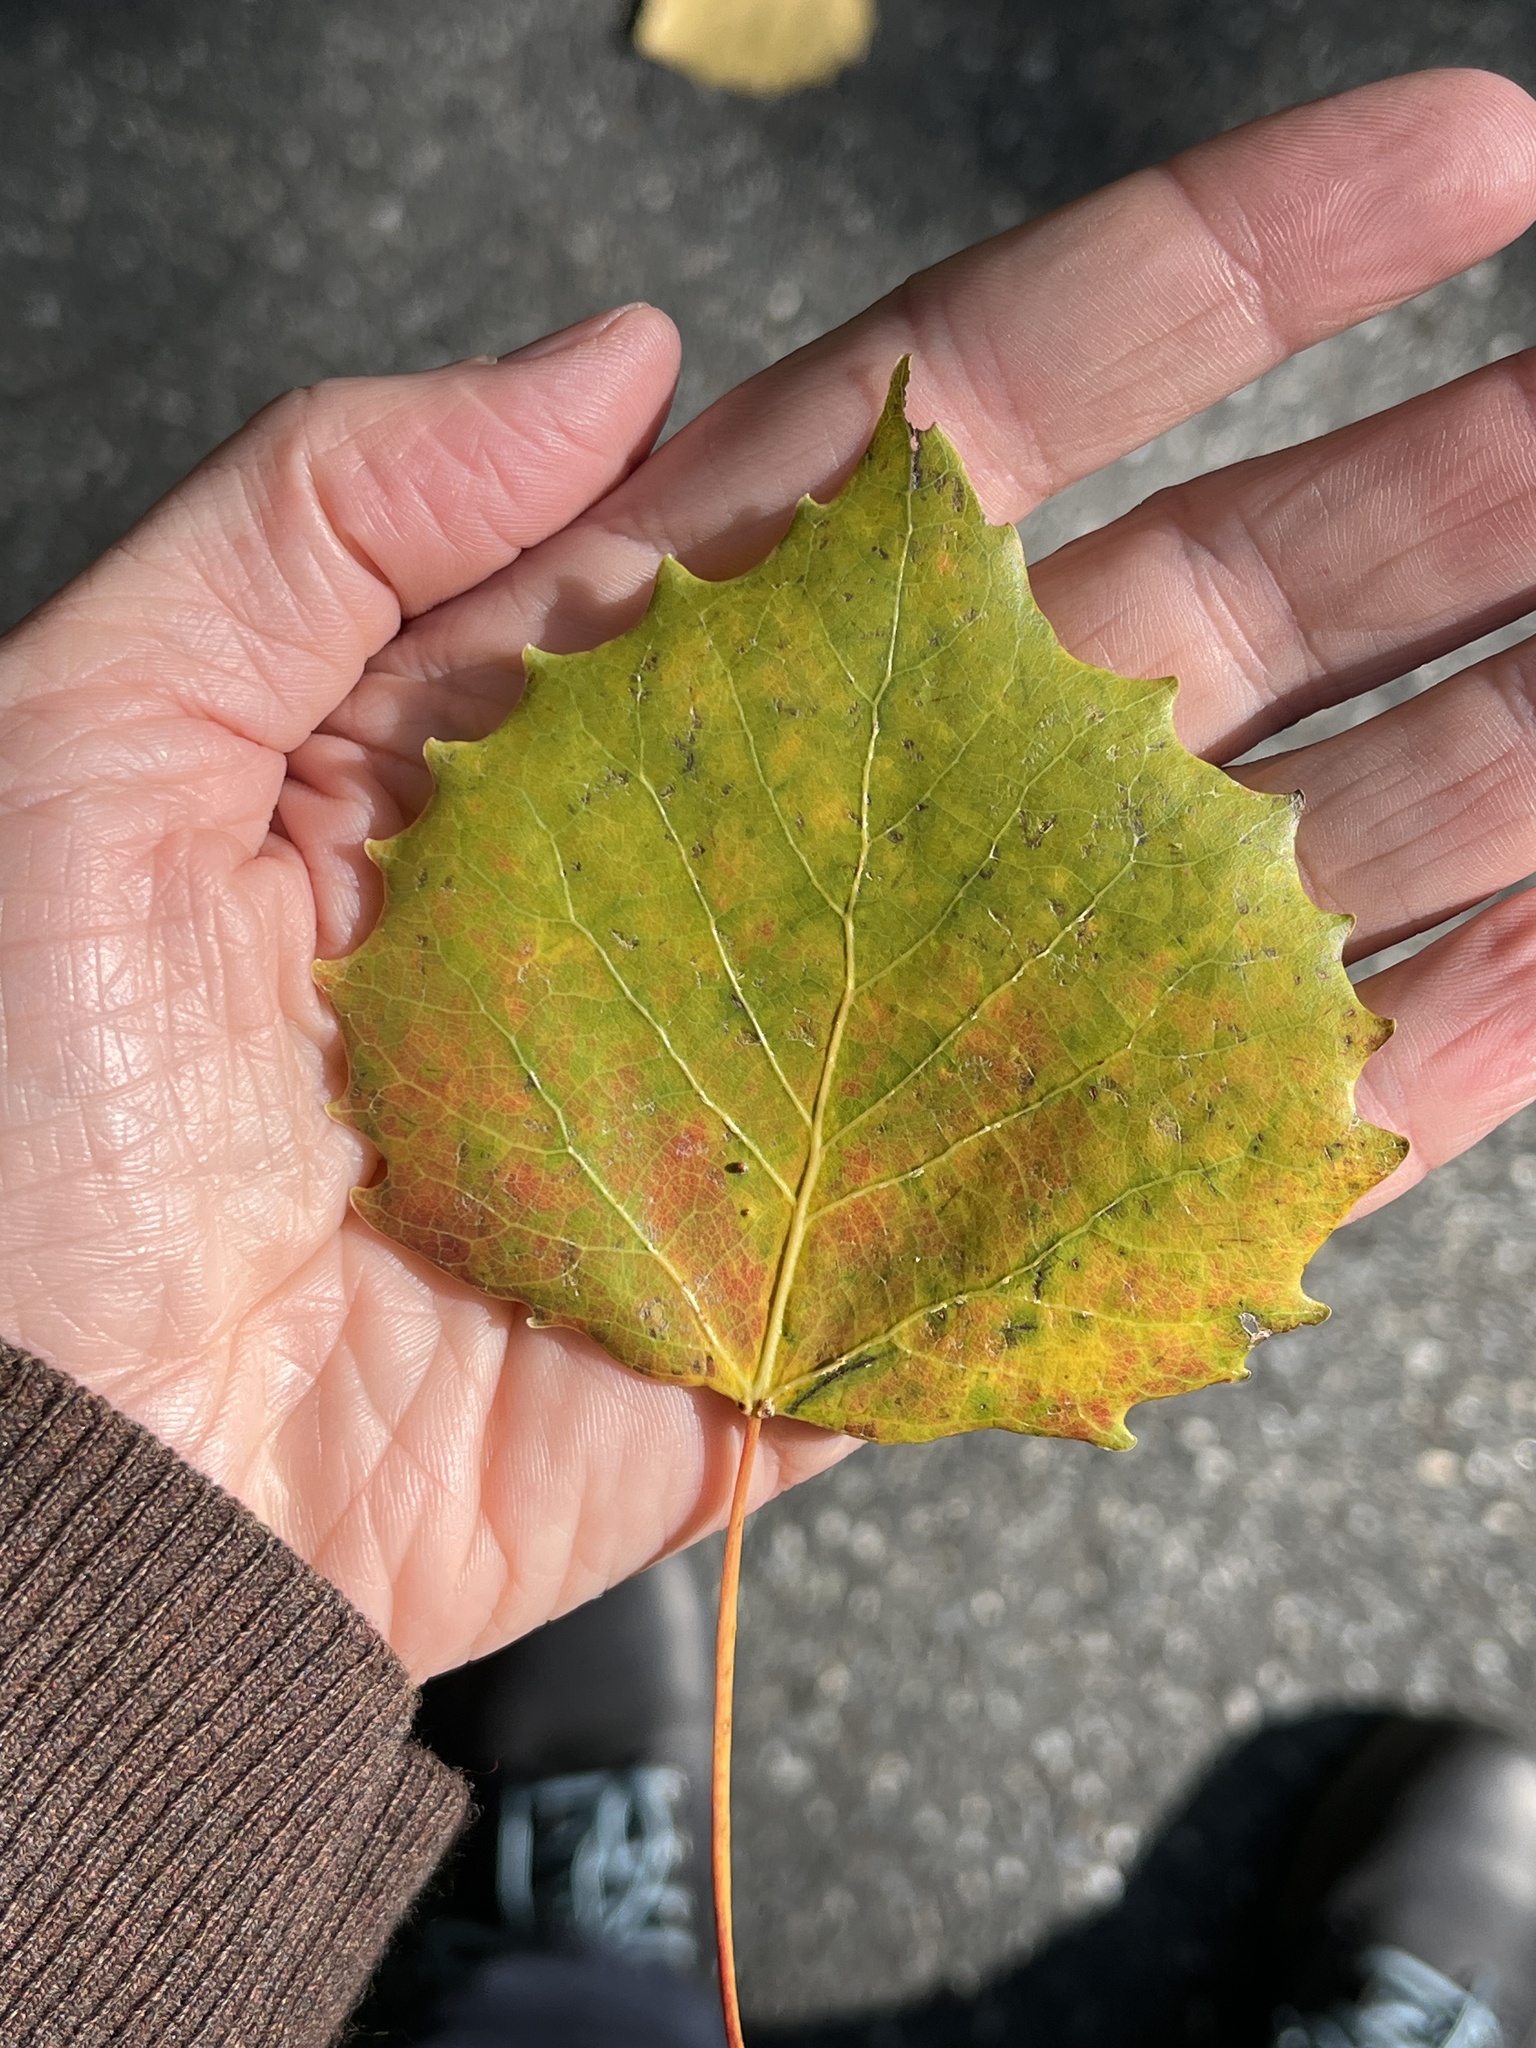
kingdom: Plantae
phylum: Tracheophyta
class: Magnoliopsida
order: Malpighiales
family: Salicaceae
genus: Populus
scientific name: Populus grandidentata
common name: Bigtooth aspen
